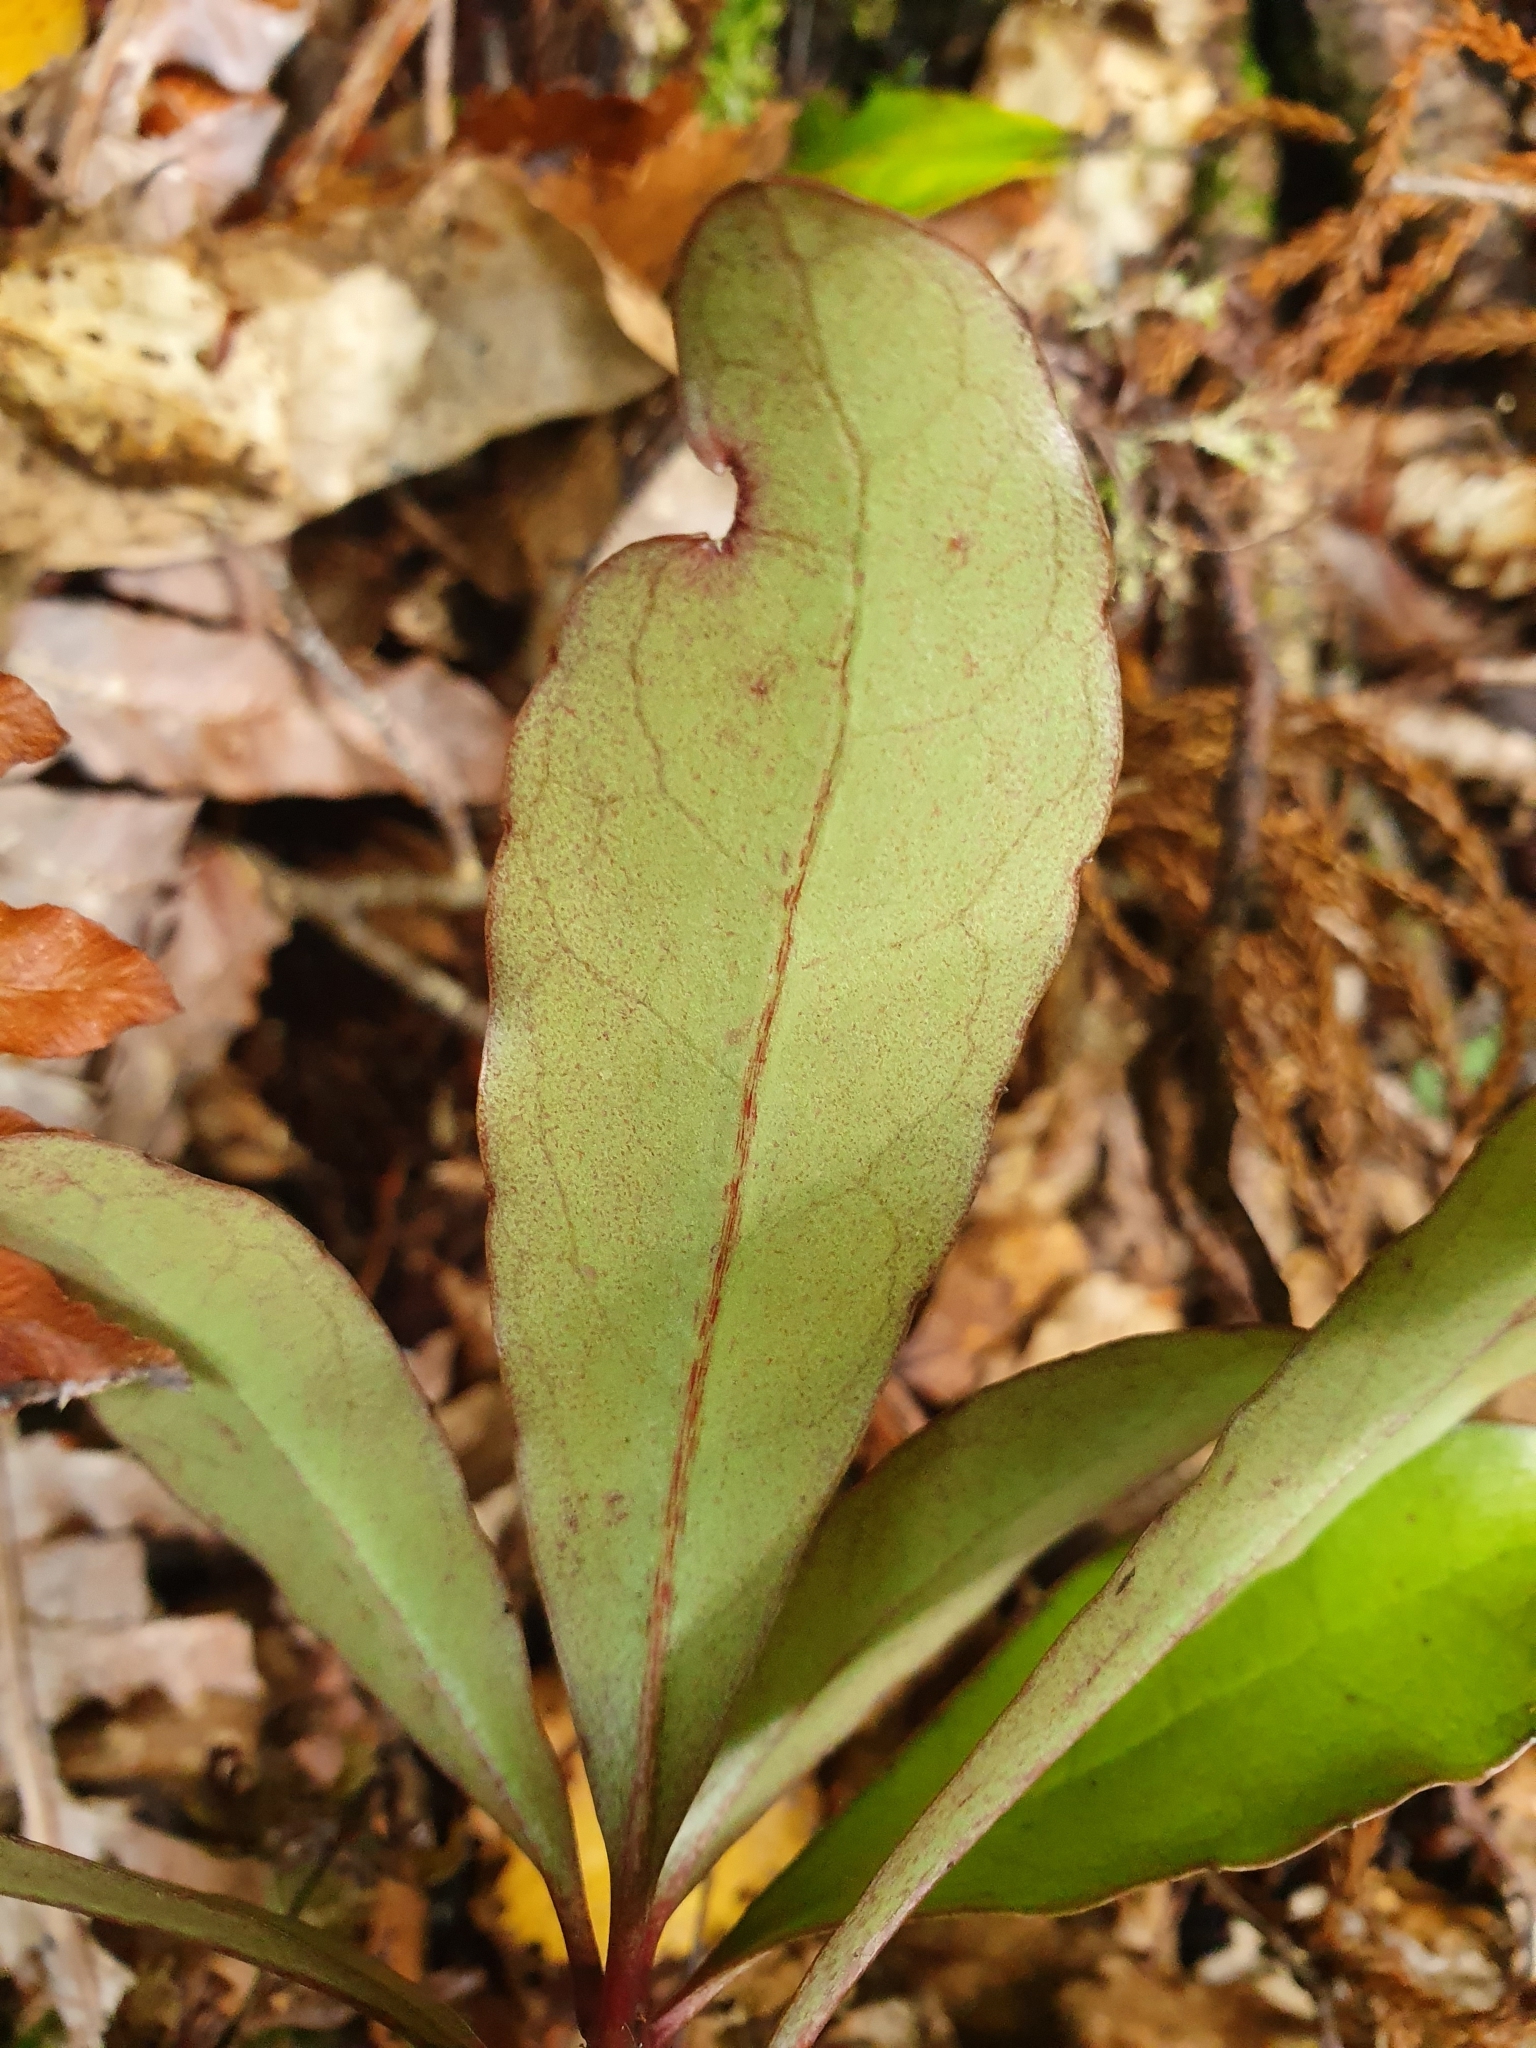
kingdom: Plantae
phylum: Tracheophyta
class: Magnoliopsida
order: Asterales
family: Alseuosmiaceae
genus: Alseuosmia
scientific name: Alseuosmia pusilla
